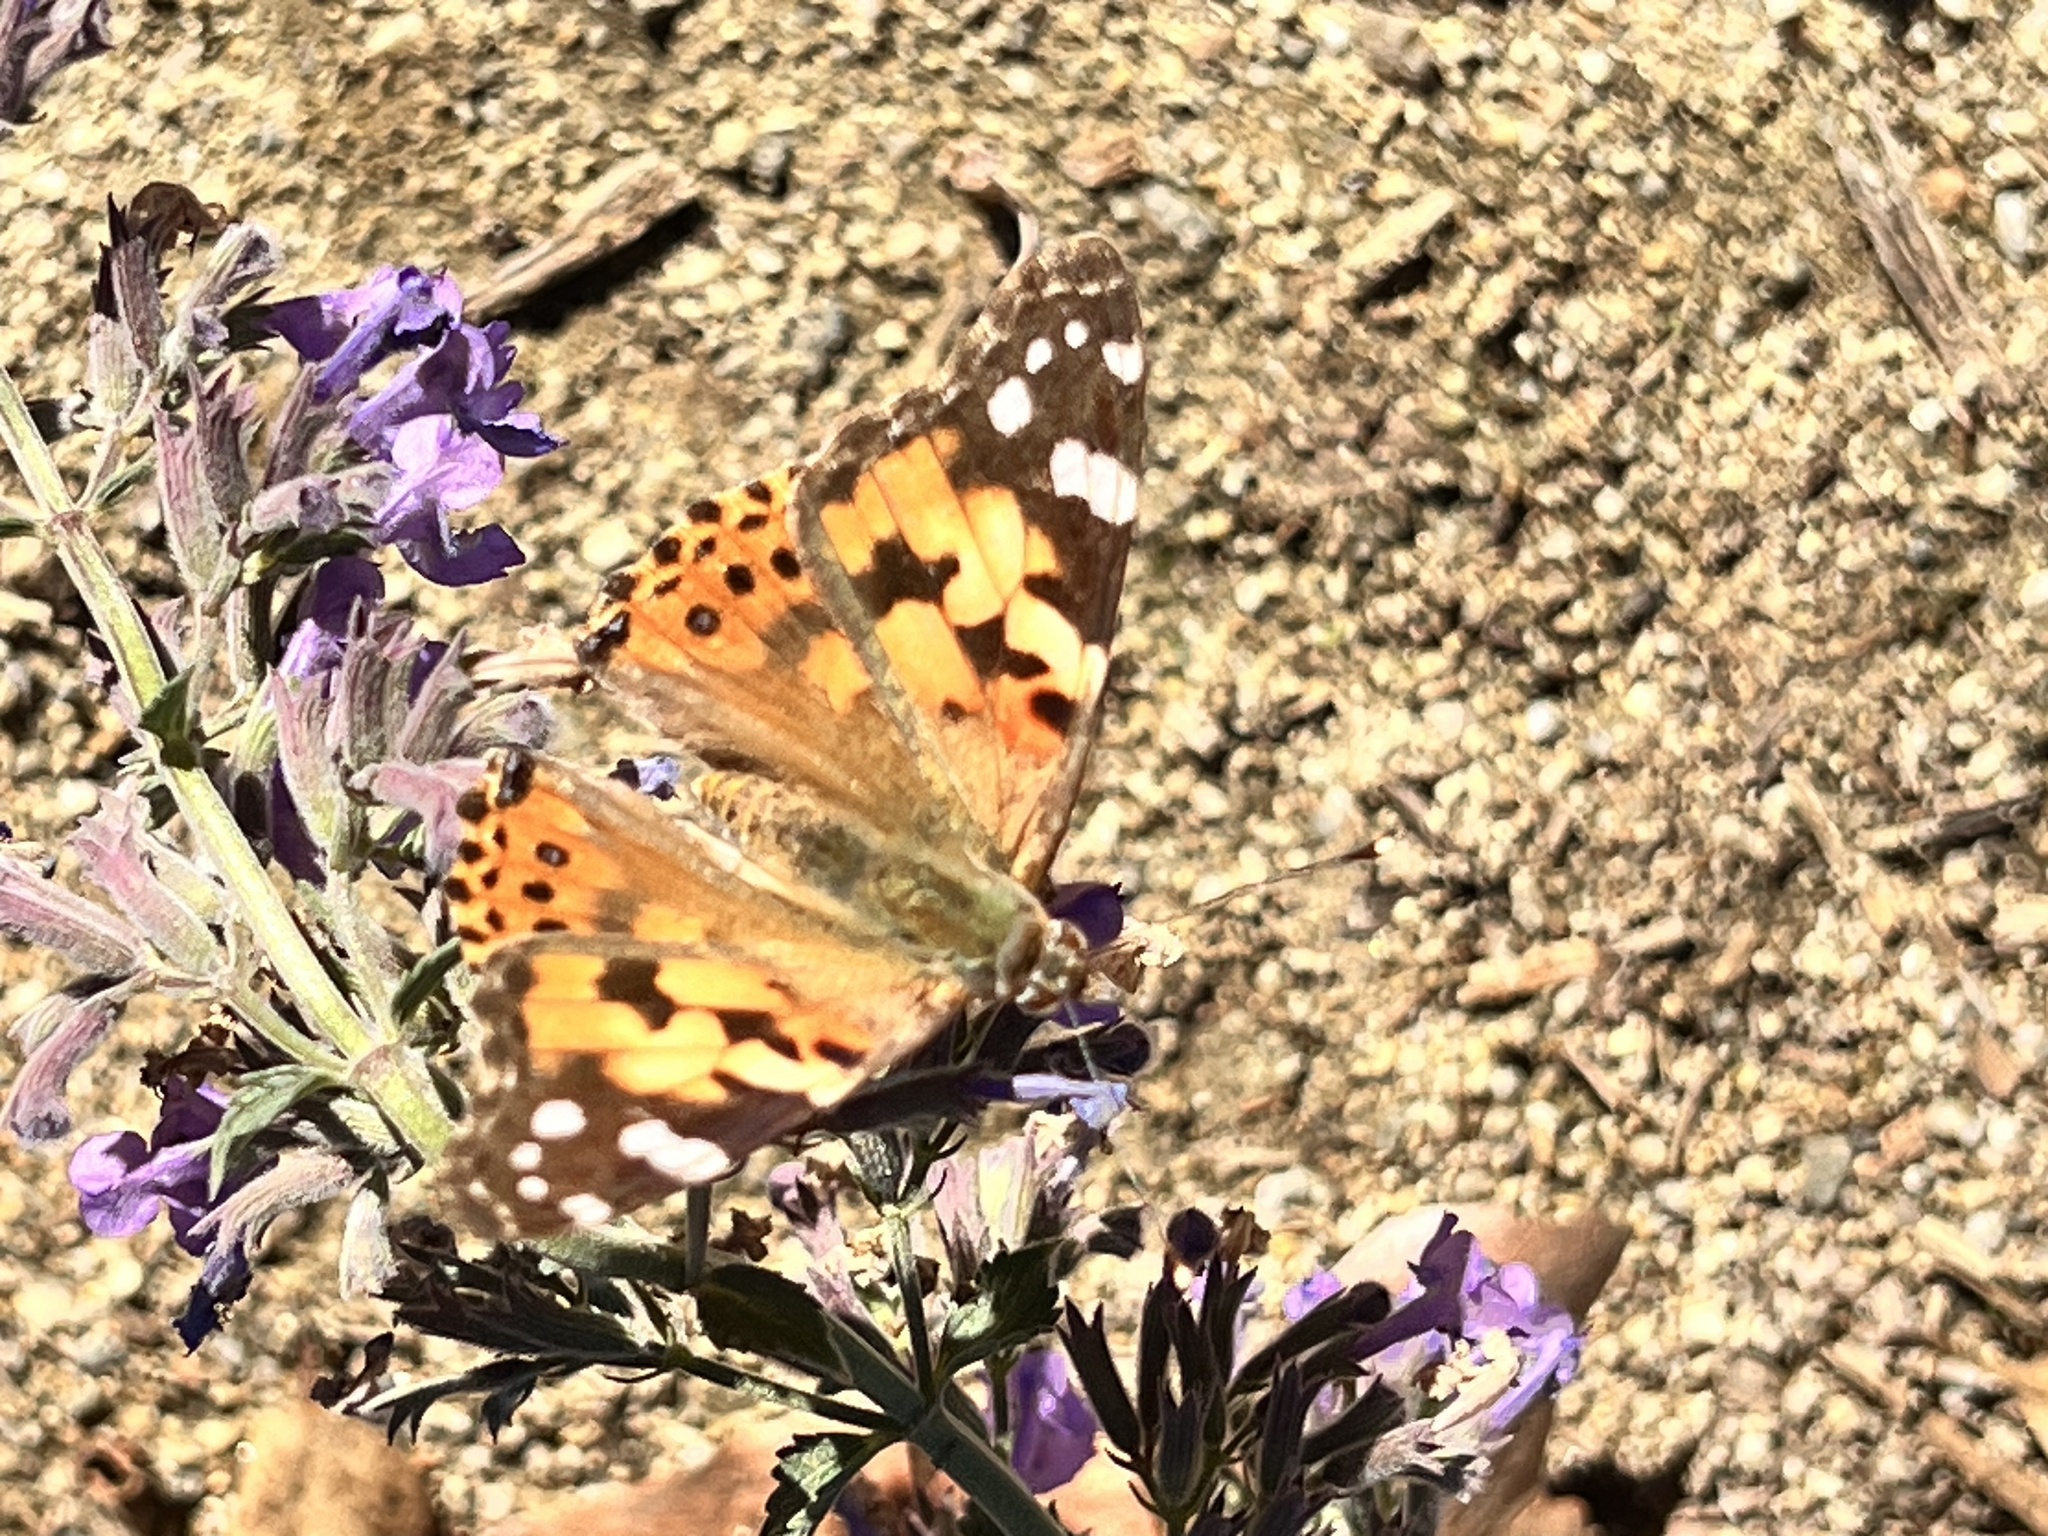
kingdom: Animalia
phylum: Arthropoda
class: Insecta
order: Lepidoptera
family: Nymphalidae
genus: Vanessa
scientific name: Vanessa cardui
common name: Painted lady
